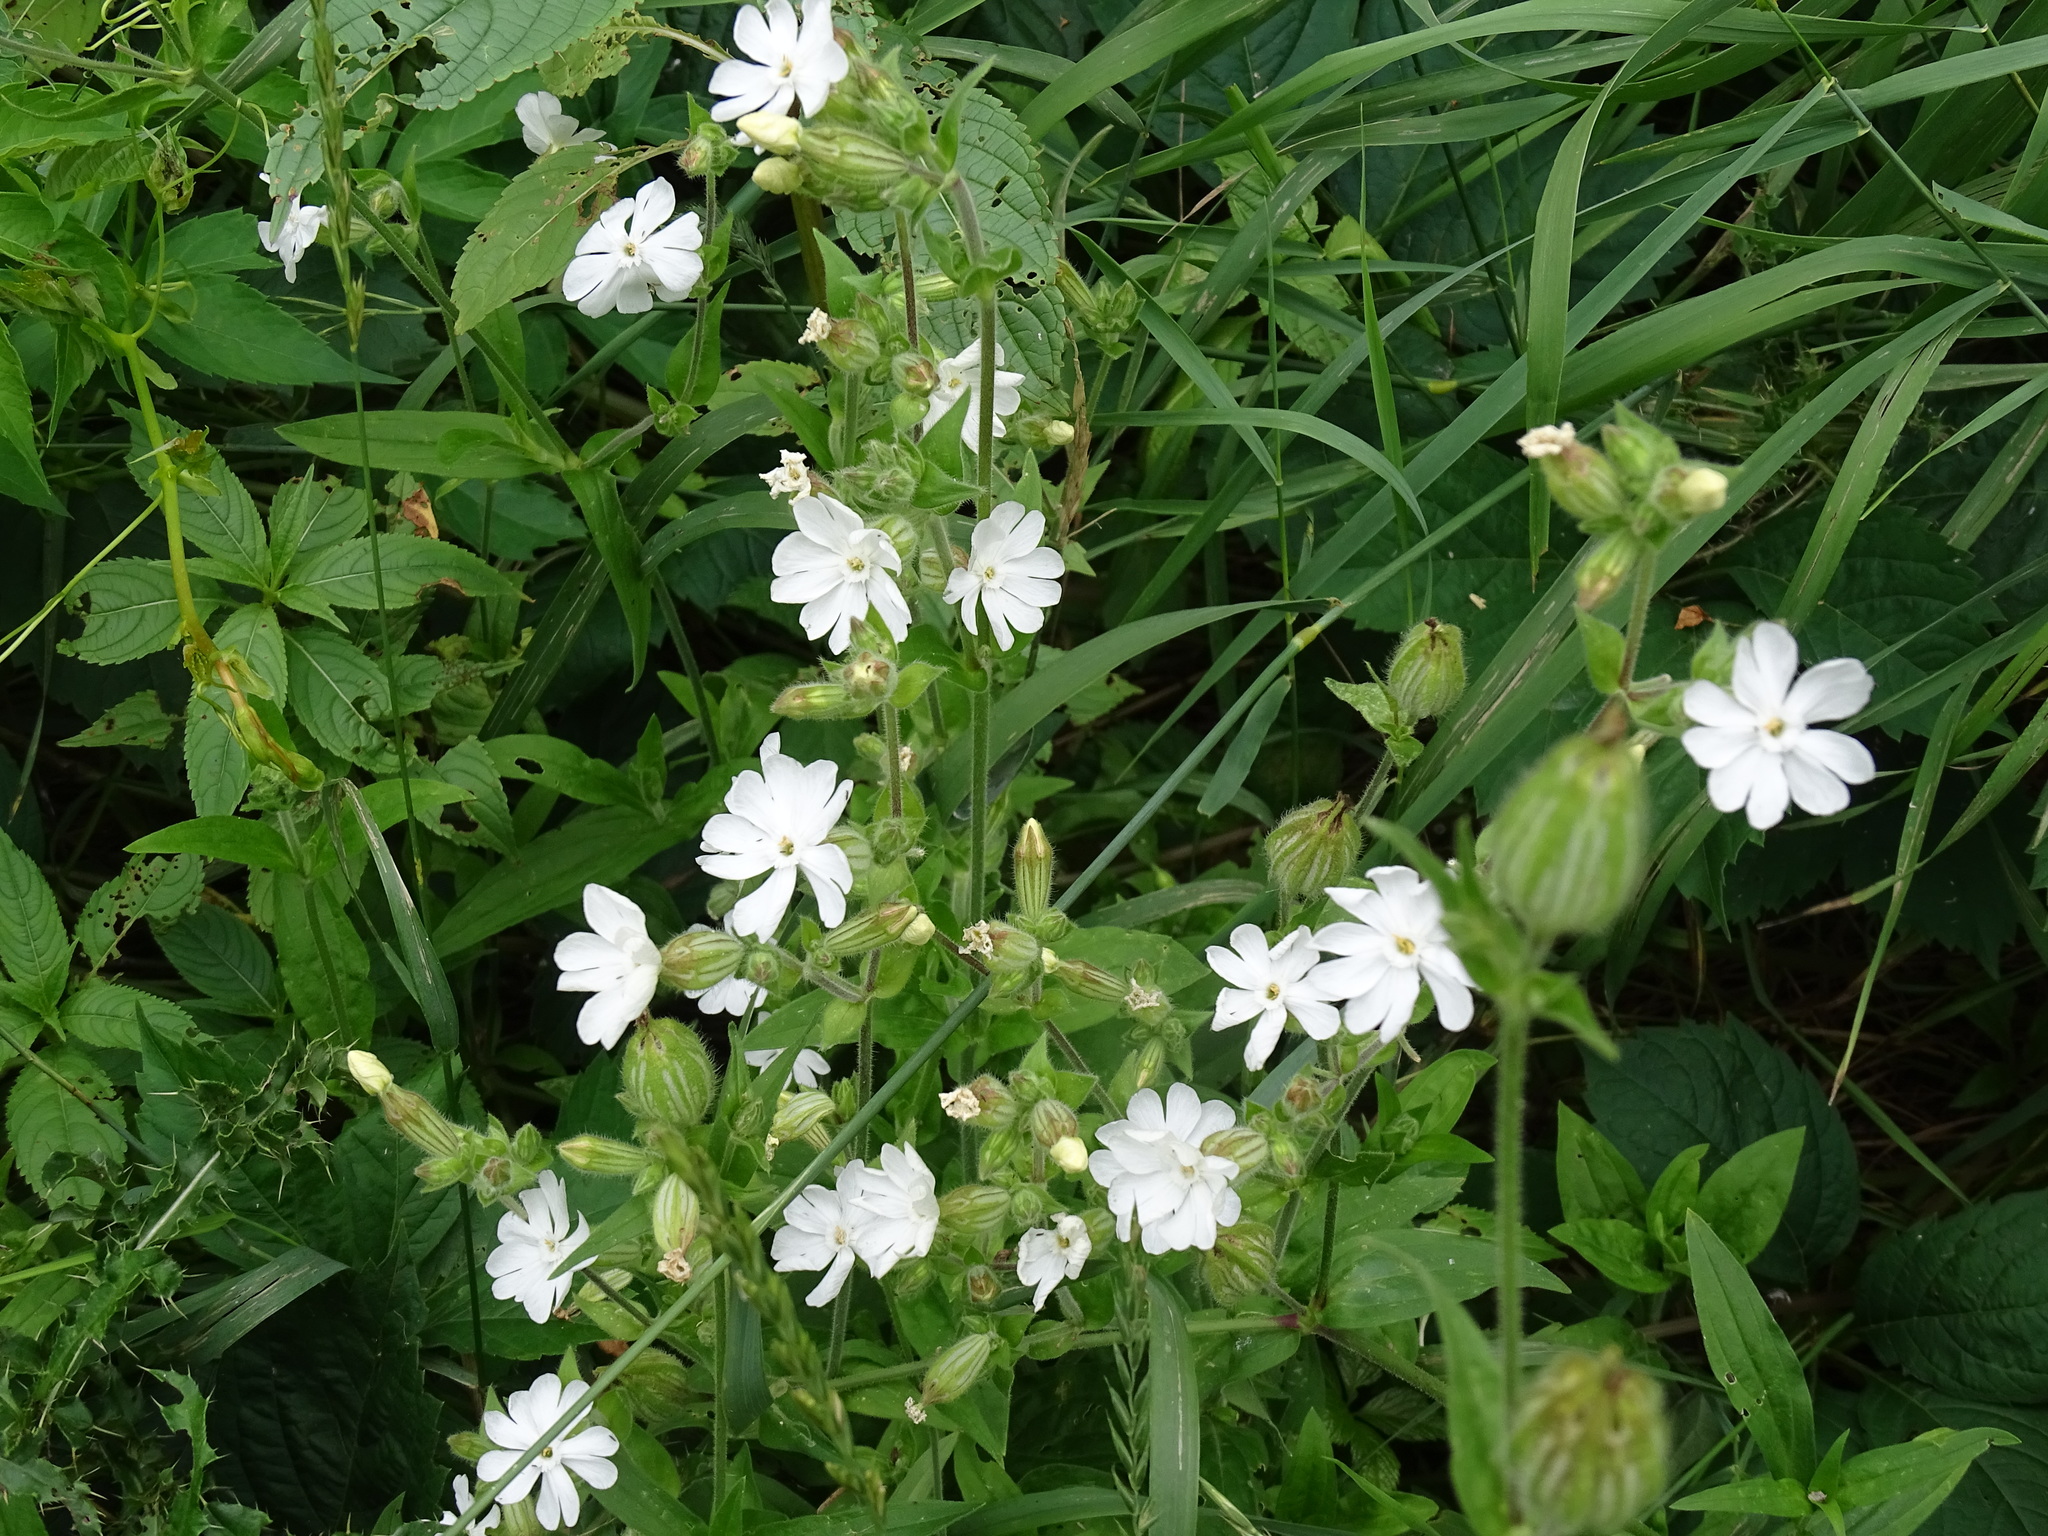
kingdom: Plantae
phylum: Tracheophyta
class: Magnoliopsida
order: Caryophyllales
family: Caryophyllaceae
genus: Silene
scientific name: Silene latifolia
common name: White campion
